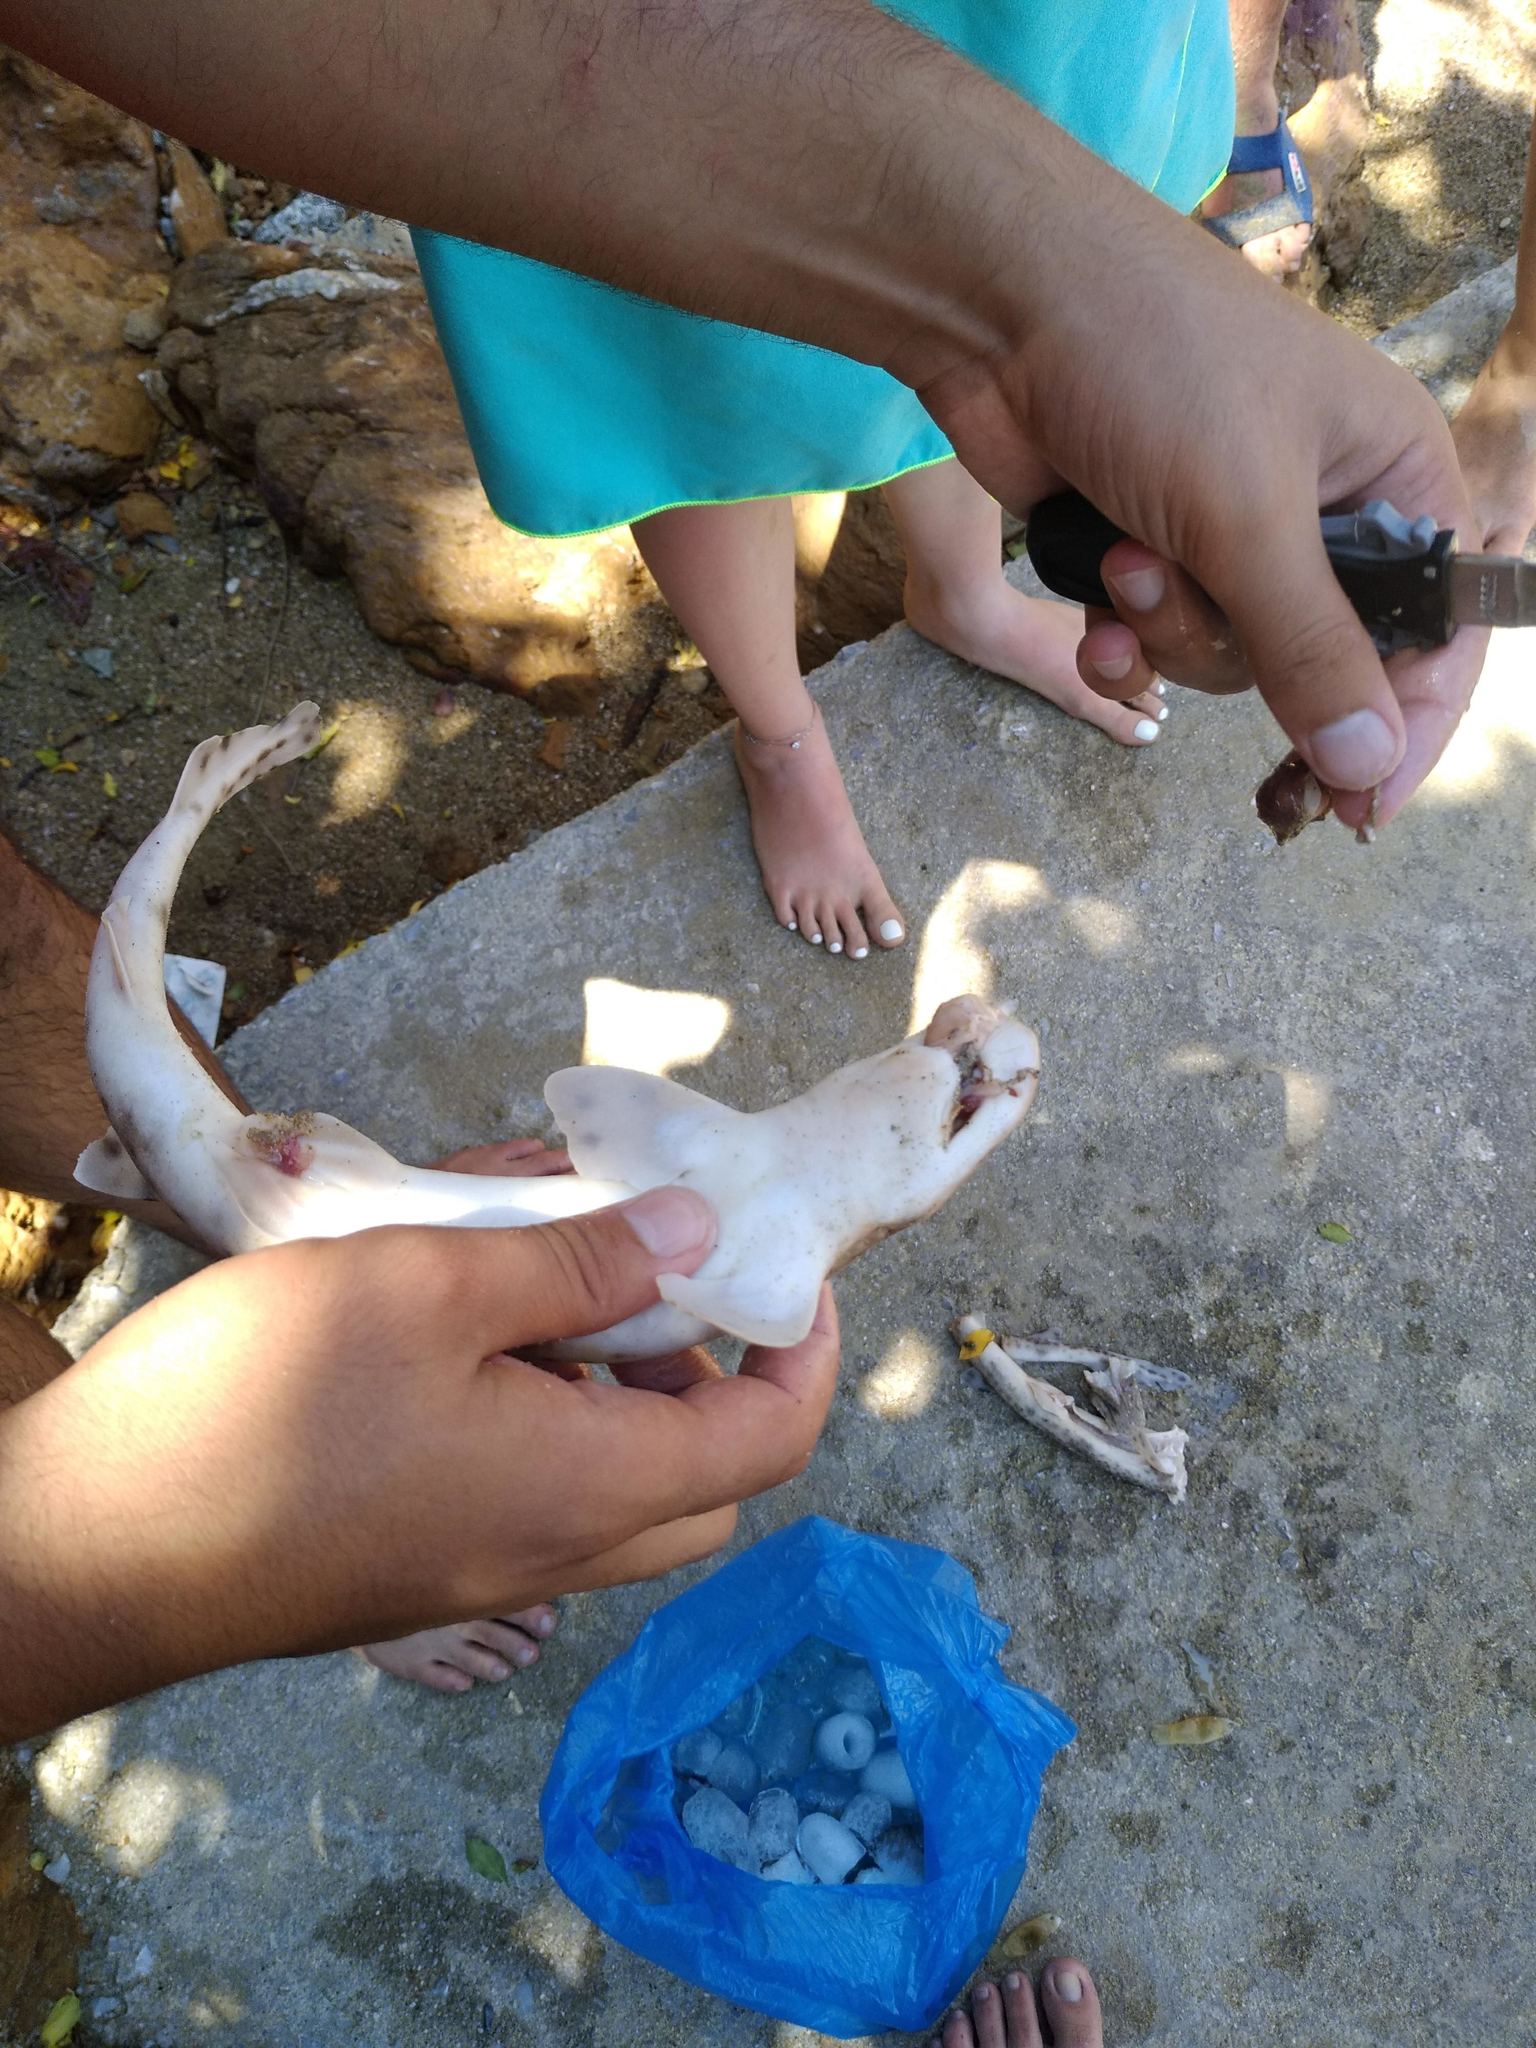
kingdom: Animalia
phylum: Chordata
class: Elasmobranchii
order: Carcharhiniformes
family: Scyliorhinidae
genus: Scyliorhinus
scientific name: Scyliorhinus canicula
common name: Lesser spotted dogfish
